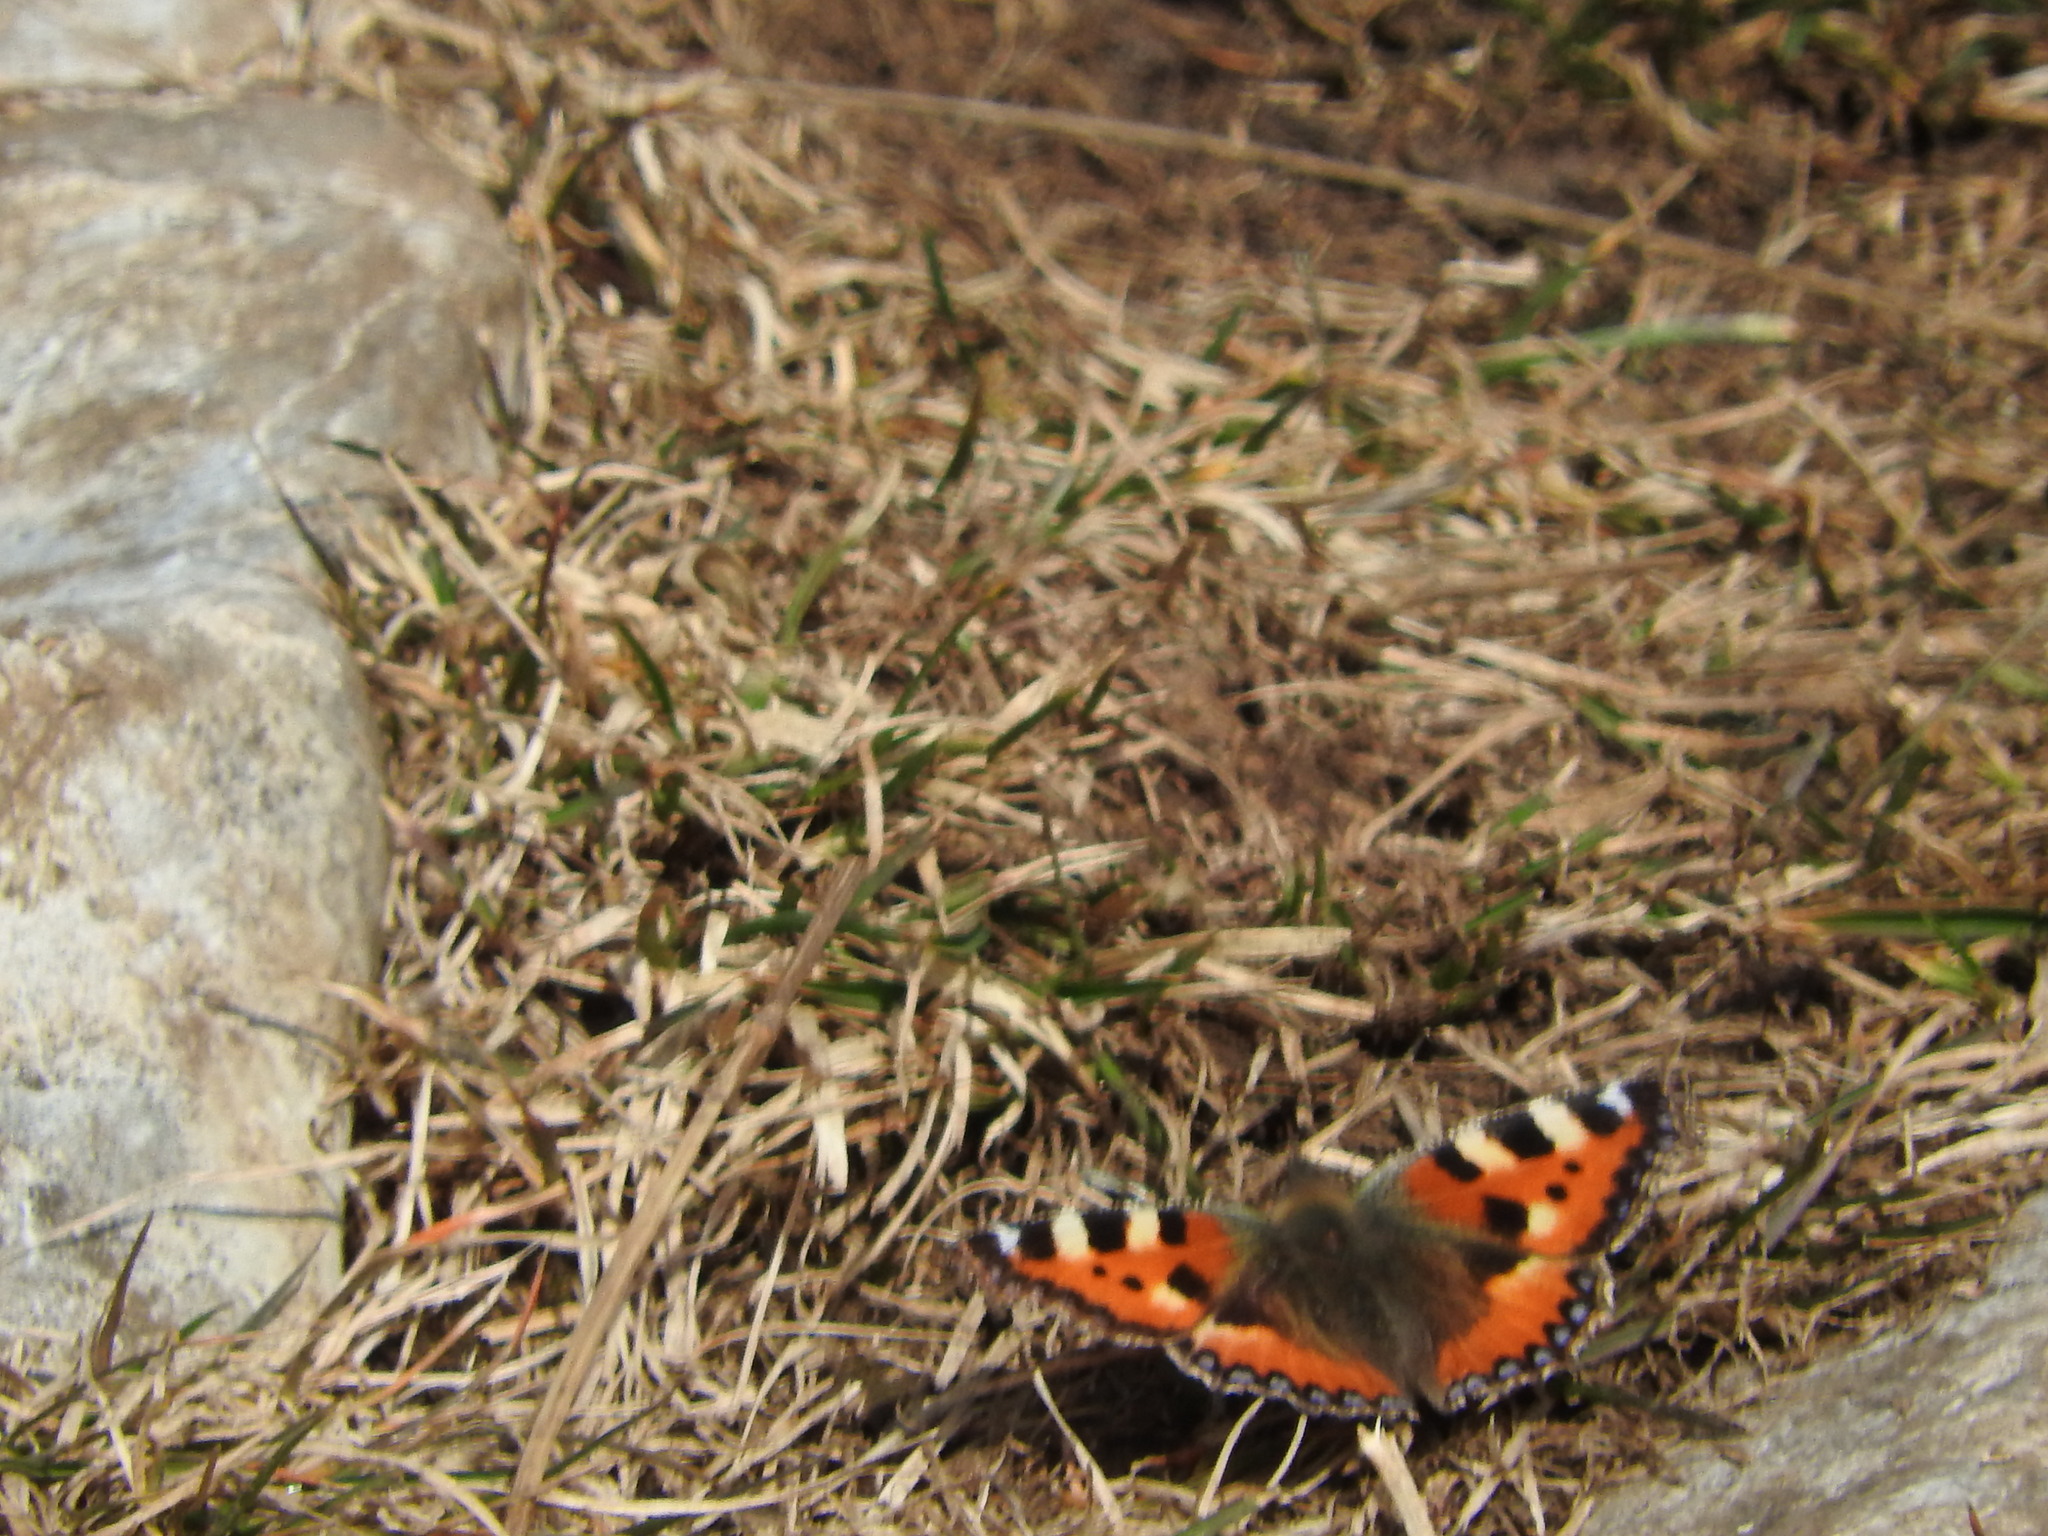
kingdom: Animalia
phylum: Arthropoda
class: Insecta
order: Lepidoptera
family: Nymphalidae
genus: Aglais
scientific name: Aglais urticae
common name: Small tortoiseshell
